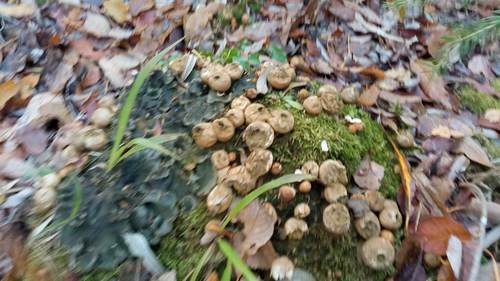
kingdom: Fungi
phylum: Basidiomycota
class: Agaricomycetes
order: Agaricales
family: Lycoperdaceae
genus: Apioperdon
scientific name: Apioperdon pyriforme
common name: Pear-shaped puffball
